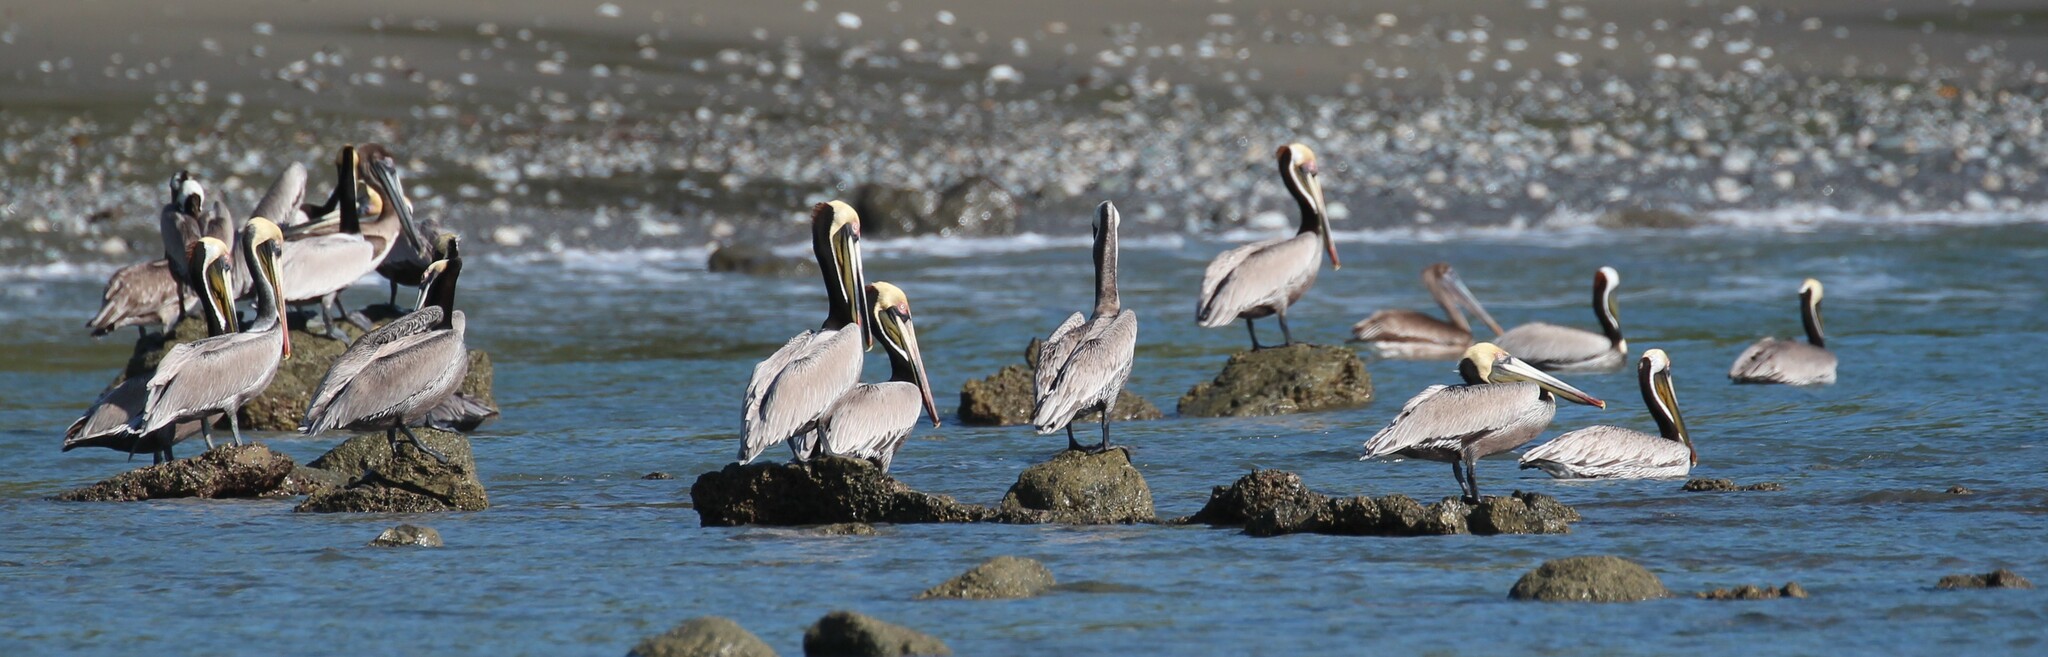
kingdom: Animalia
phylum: Chordata
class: Aves
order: Pelecaniformes
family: Pelecanidae
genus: Pelecanus
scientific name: Pelecanus occidentalis
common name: Brown pelican
